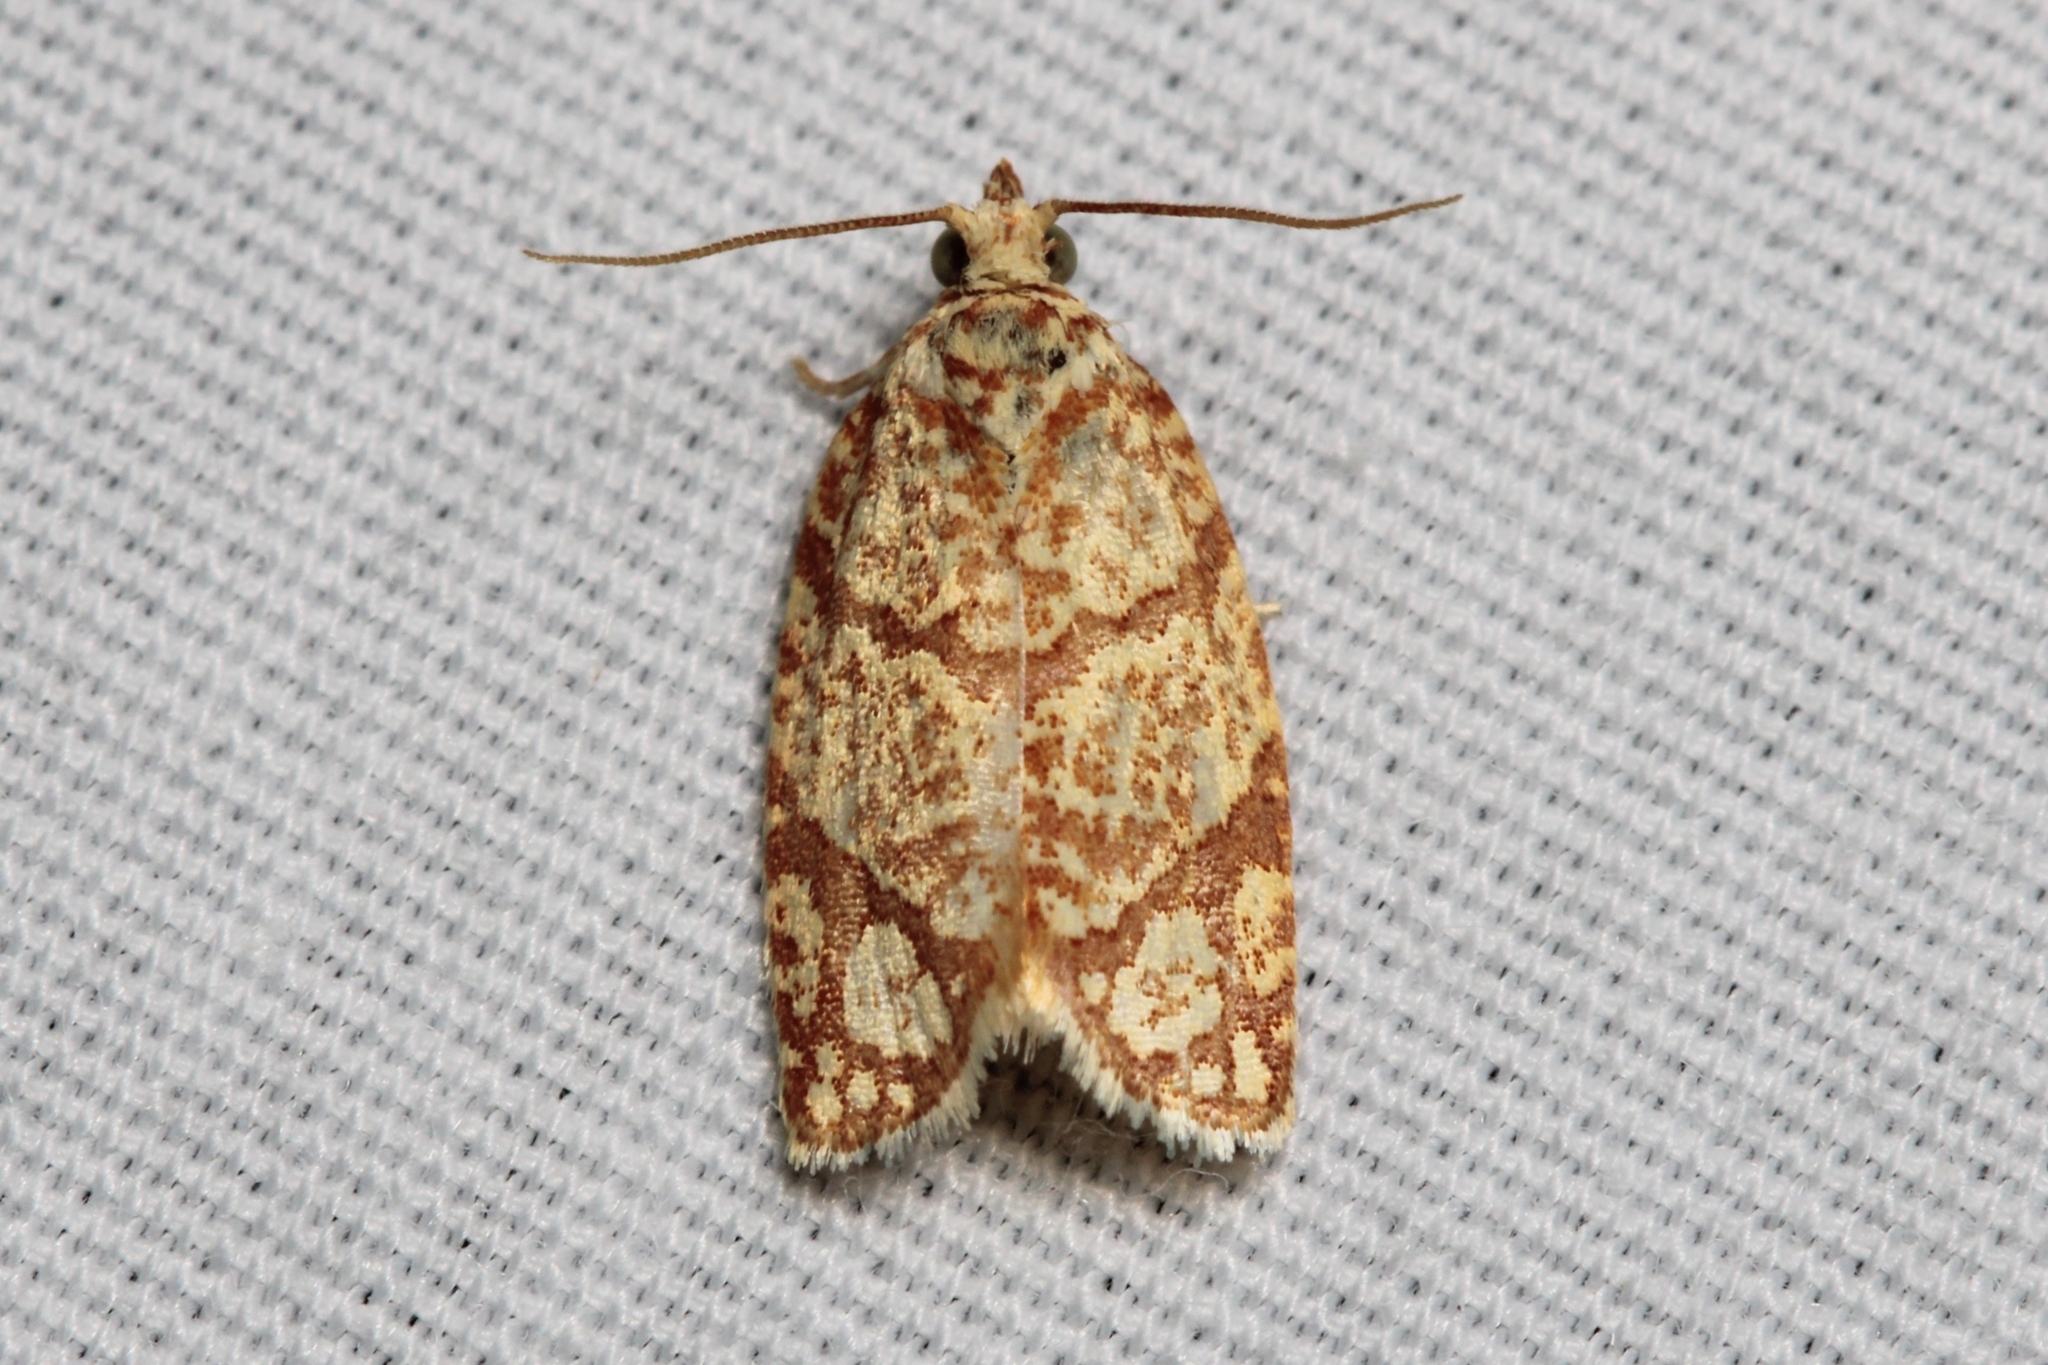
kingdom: Animalia
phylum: Arthropoda
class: Insecta
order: Lepidoptera
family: Tortricidae
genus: Argyrotaenia
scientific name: Argyrotaenia quercifoliana
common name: Yellow-winged oak leafroller moth
